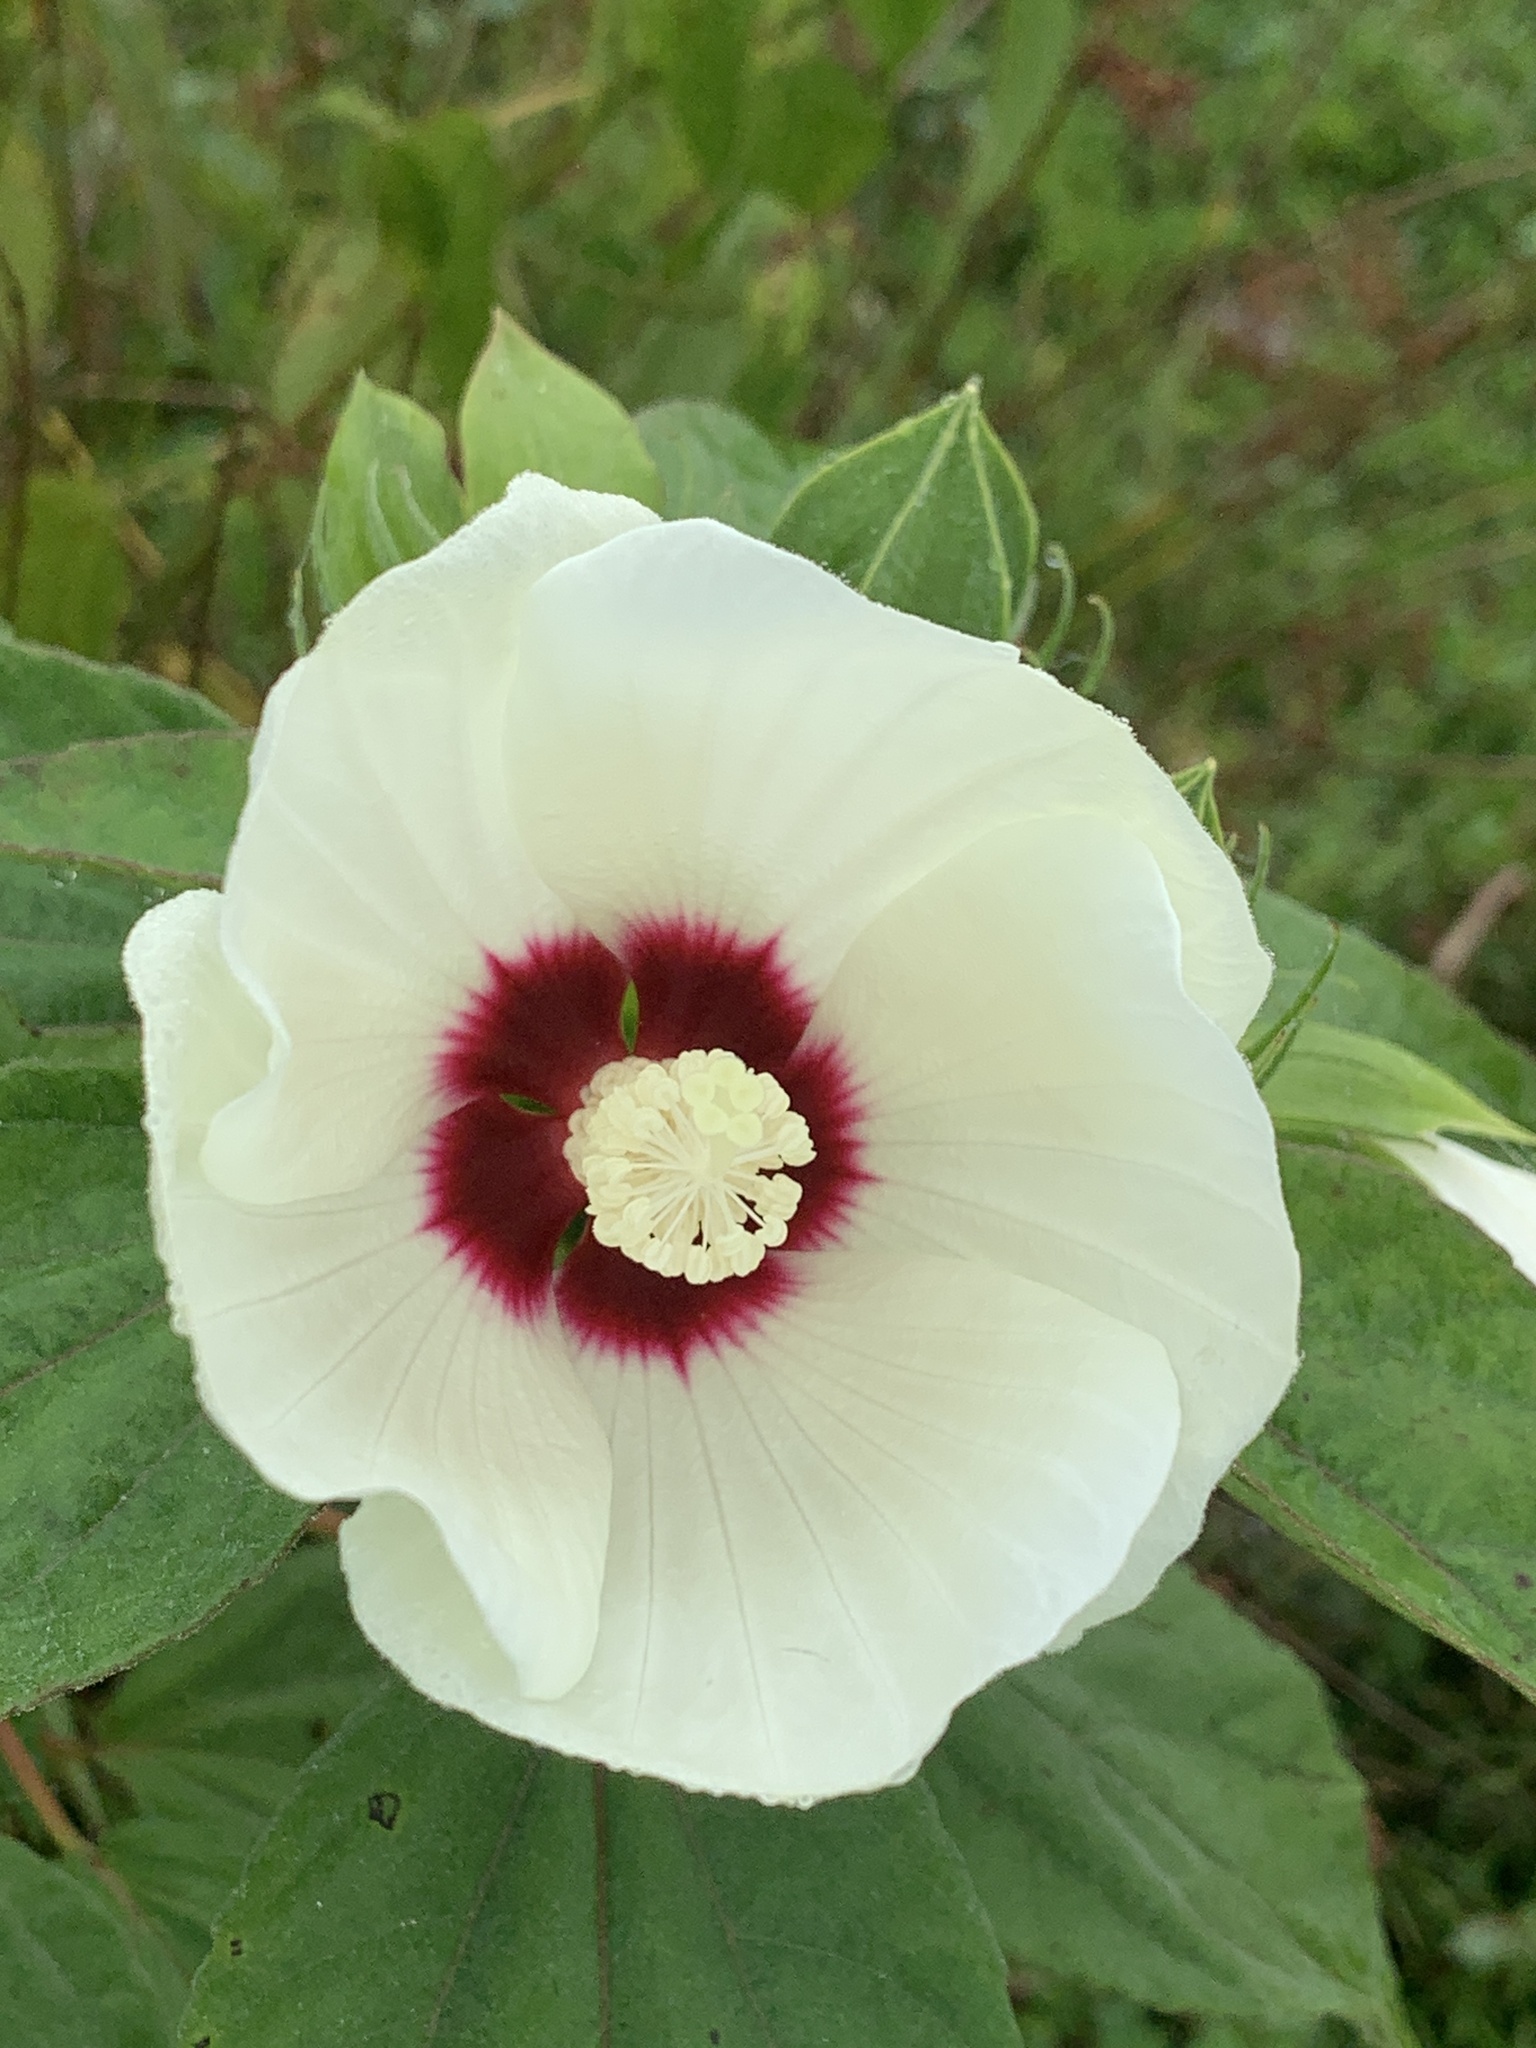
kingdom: Plantae
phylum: Tracheophyta
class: Magnoliopsida
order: Malvales
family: Malvaceae
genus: Hibiscus
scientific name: Hibiscus moscheutos
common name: Common rose-mallow
